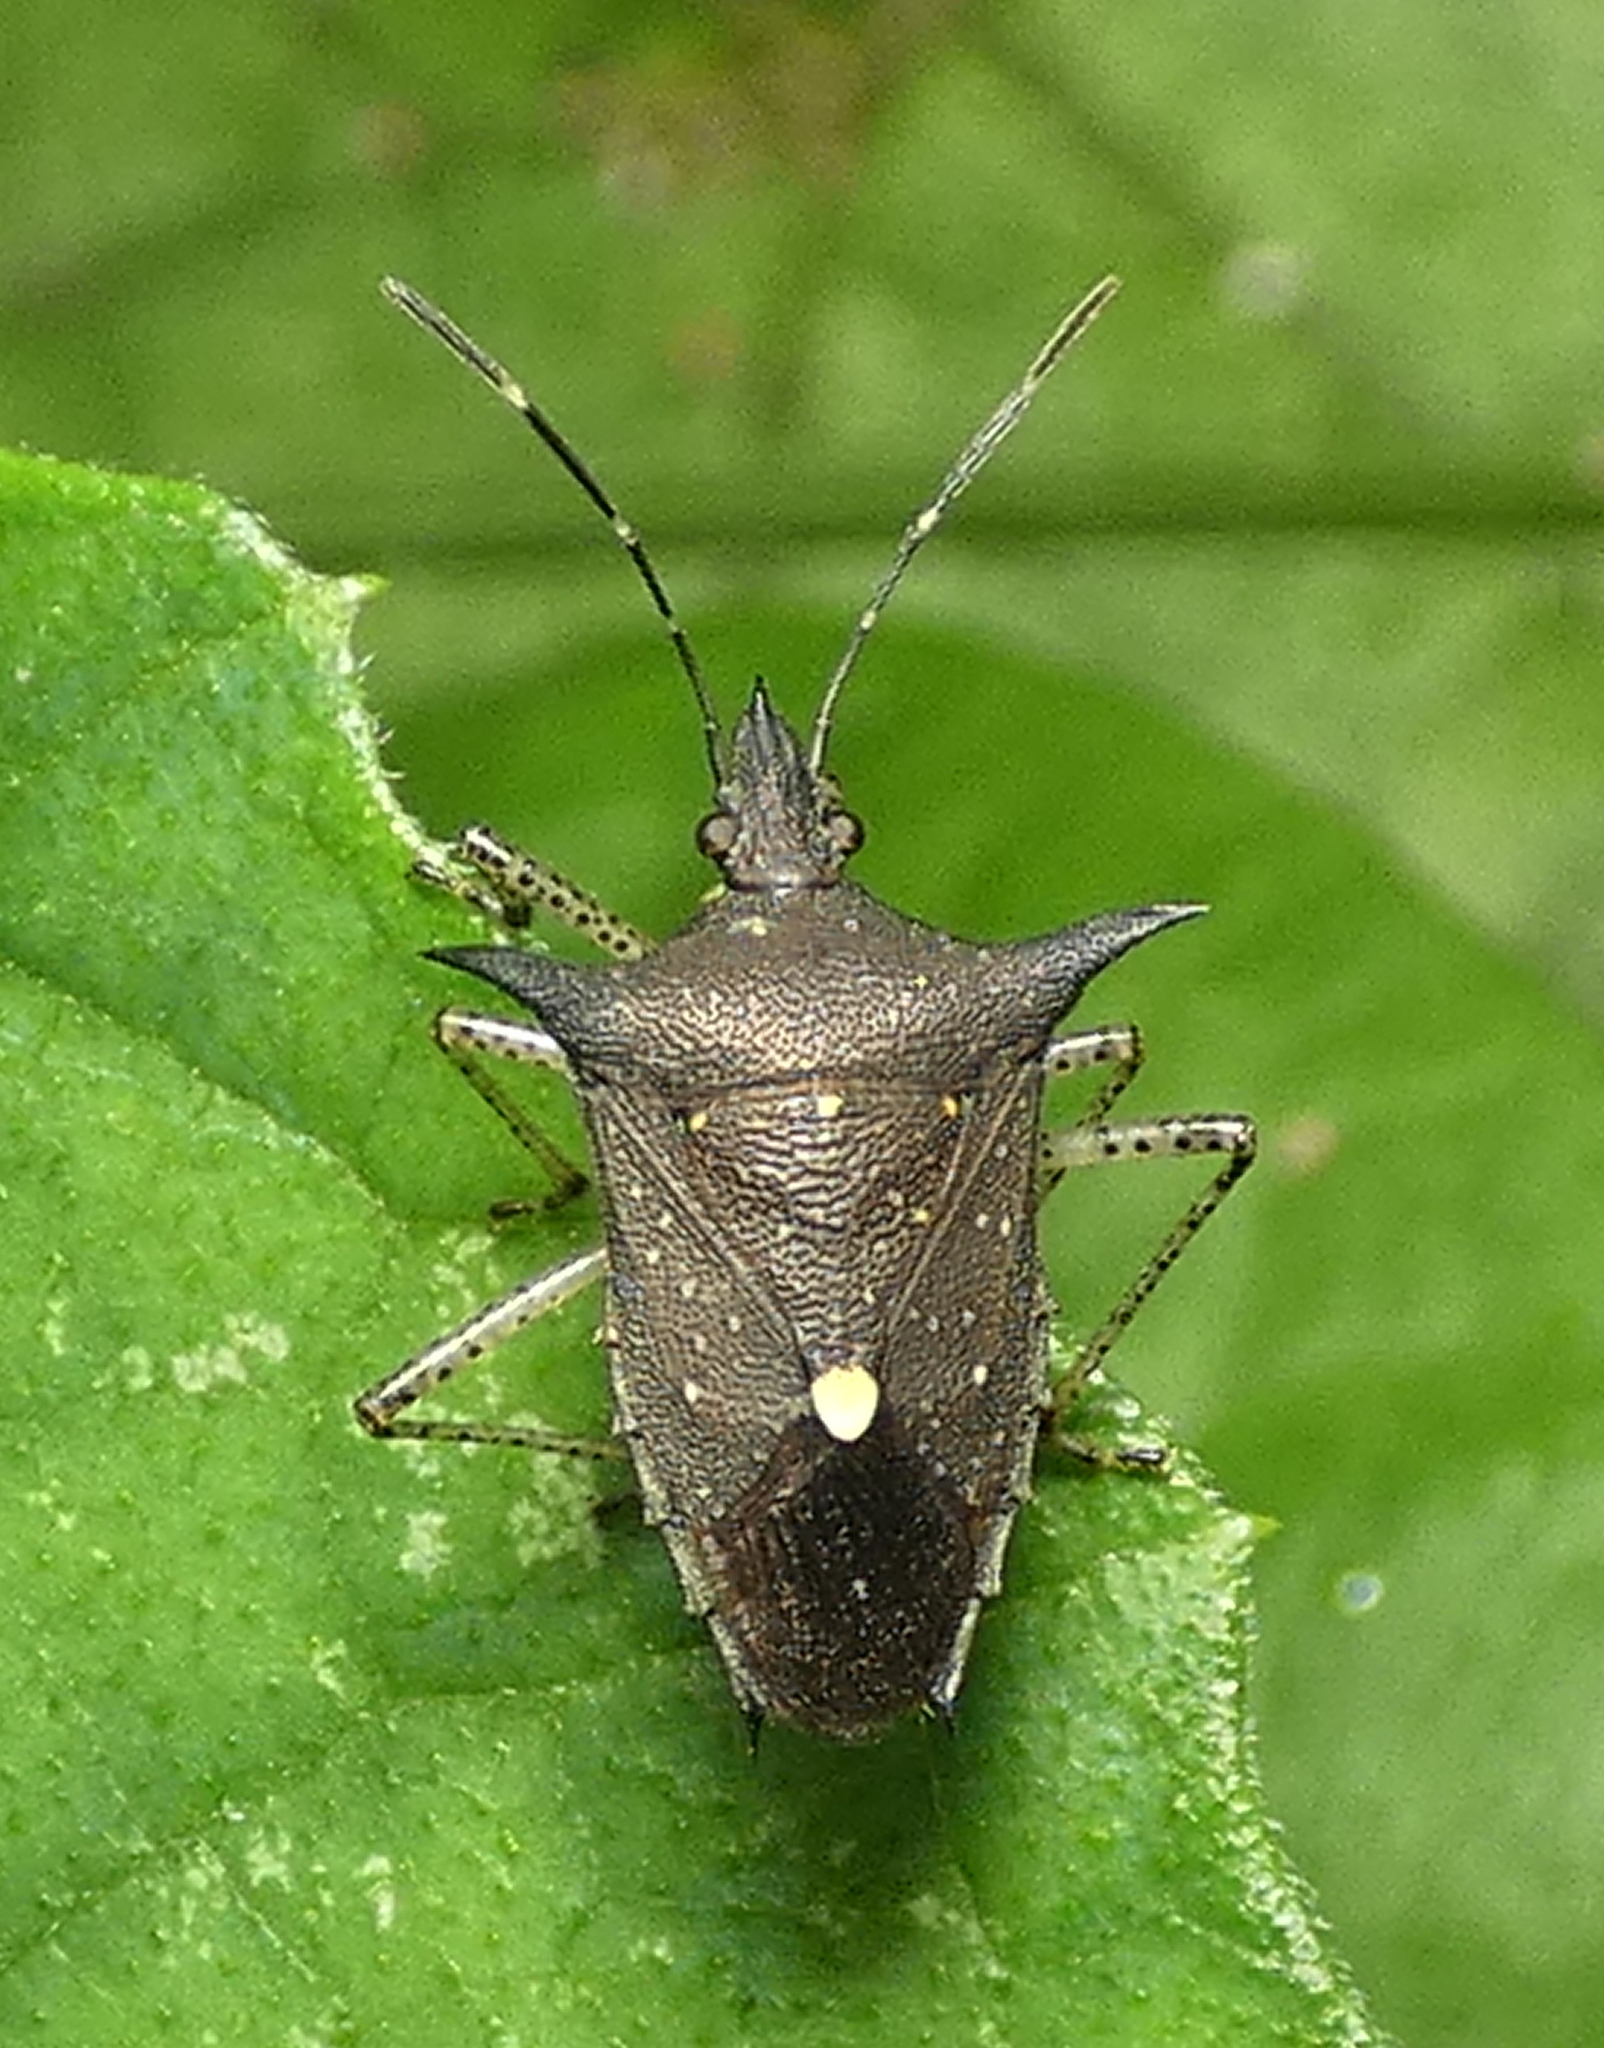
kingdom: Animalia
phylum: Arthropoda
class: Insecta
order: Hemiptera
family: Pentatomidae
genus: Proxys
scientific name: Proxys albopunctulatus
